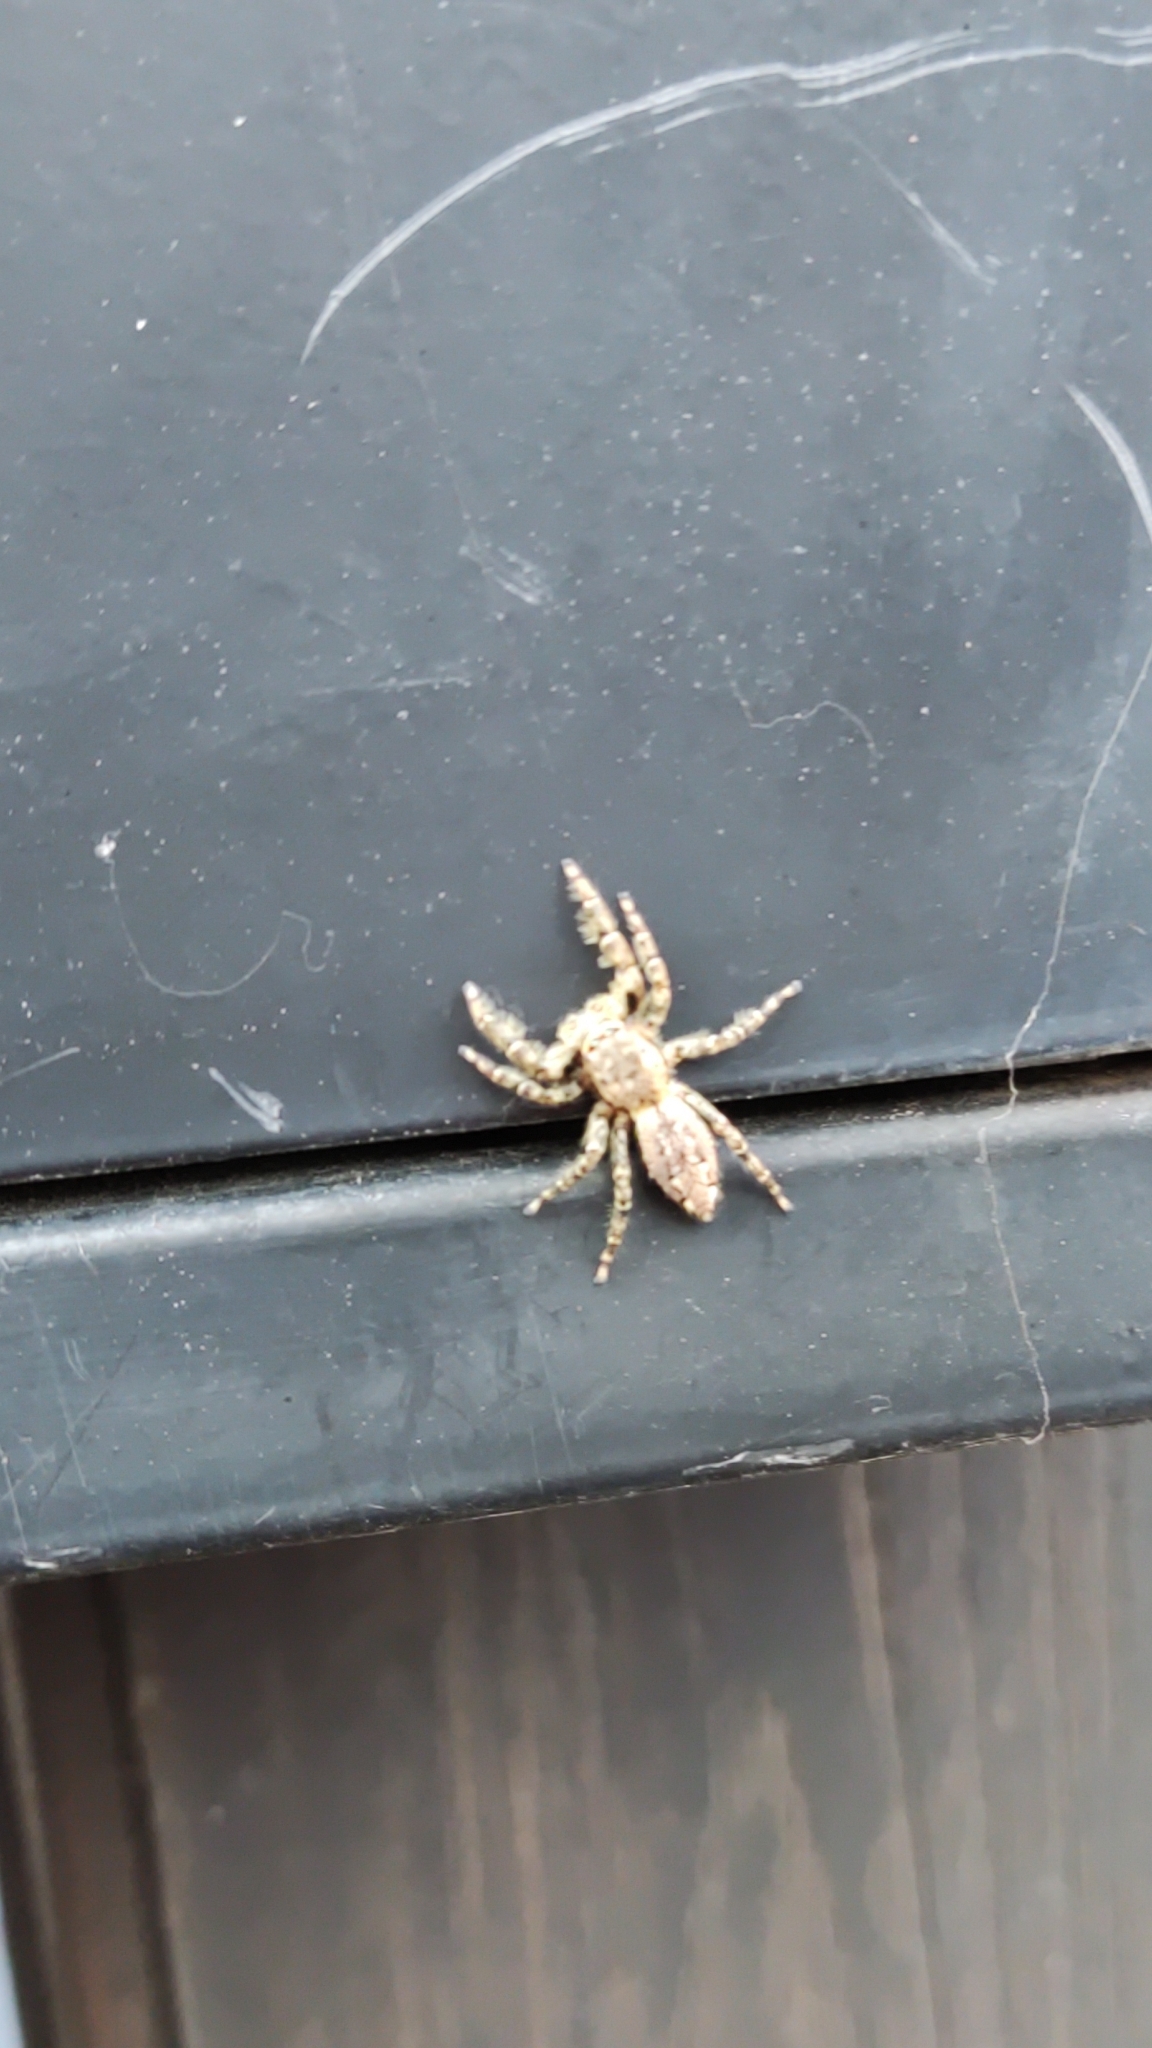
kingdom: Animalia
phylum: Arthropoda
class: Arachnida
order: Araneae
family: Salticidae
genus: Marpissa
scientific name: Marpissa muscosa
